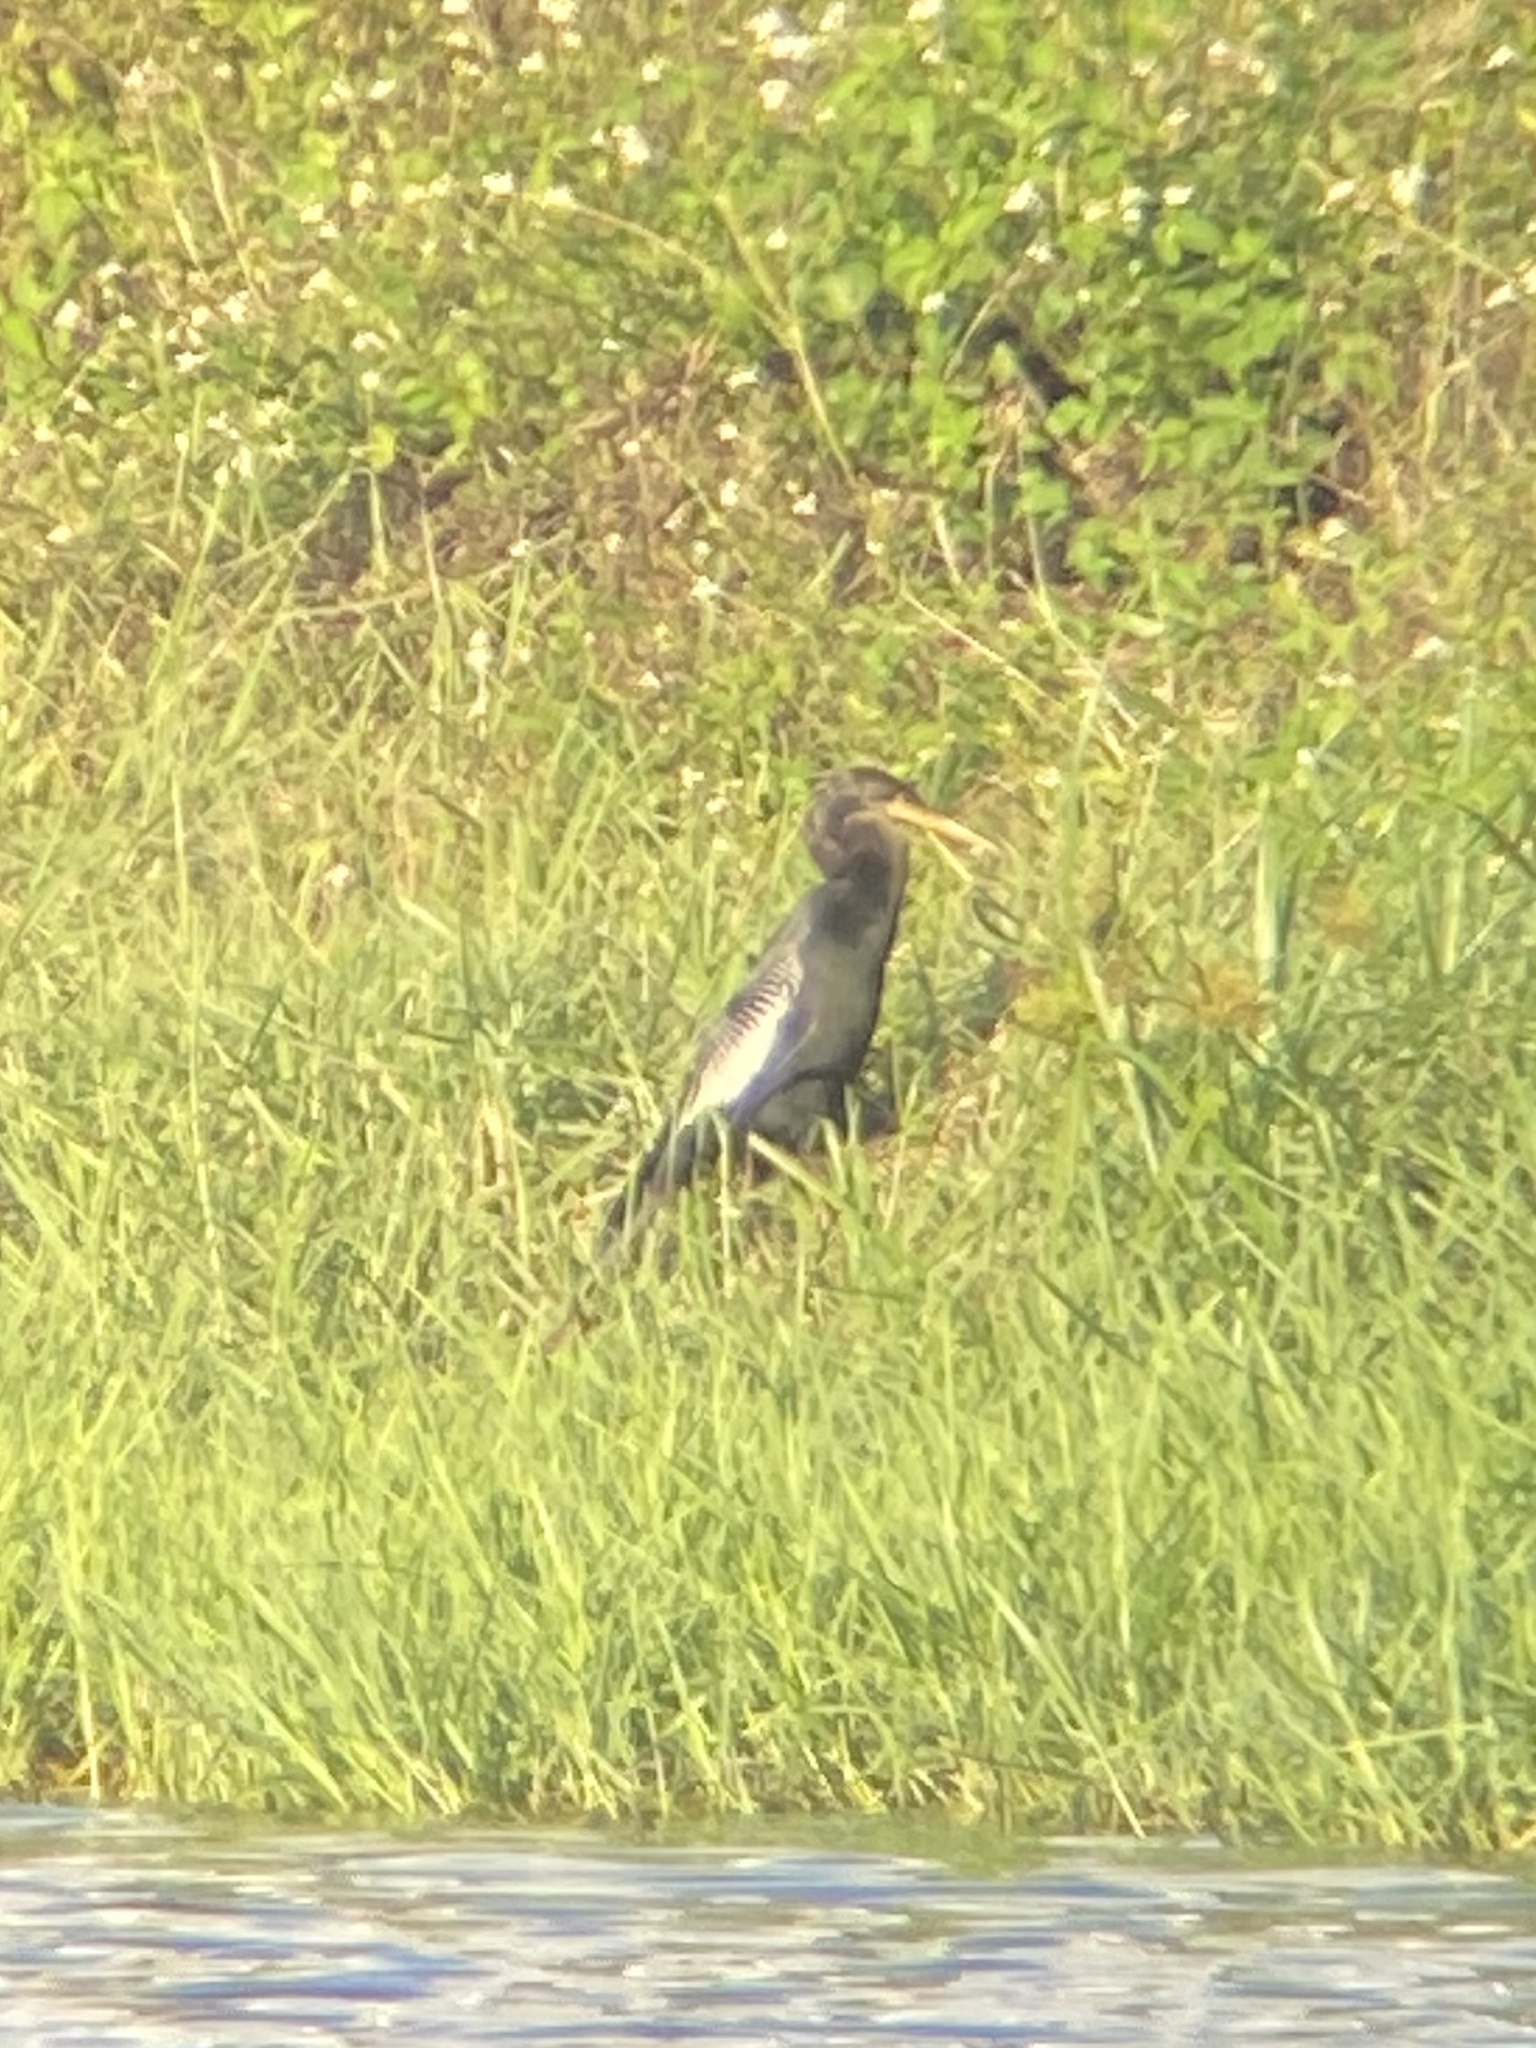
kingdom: Animalia
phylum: Chordata
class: Aves
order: Suliformes
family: Anhingidae
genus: Anhinga
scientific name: Anhinga anhinga
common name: Anhinga
